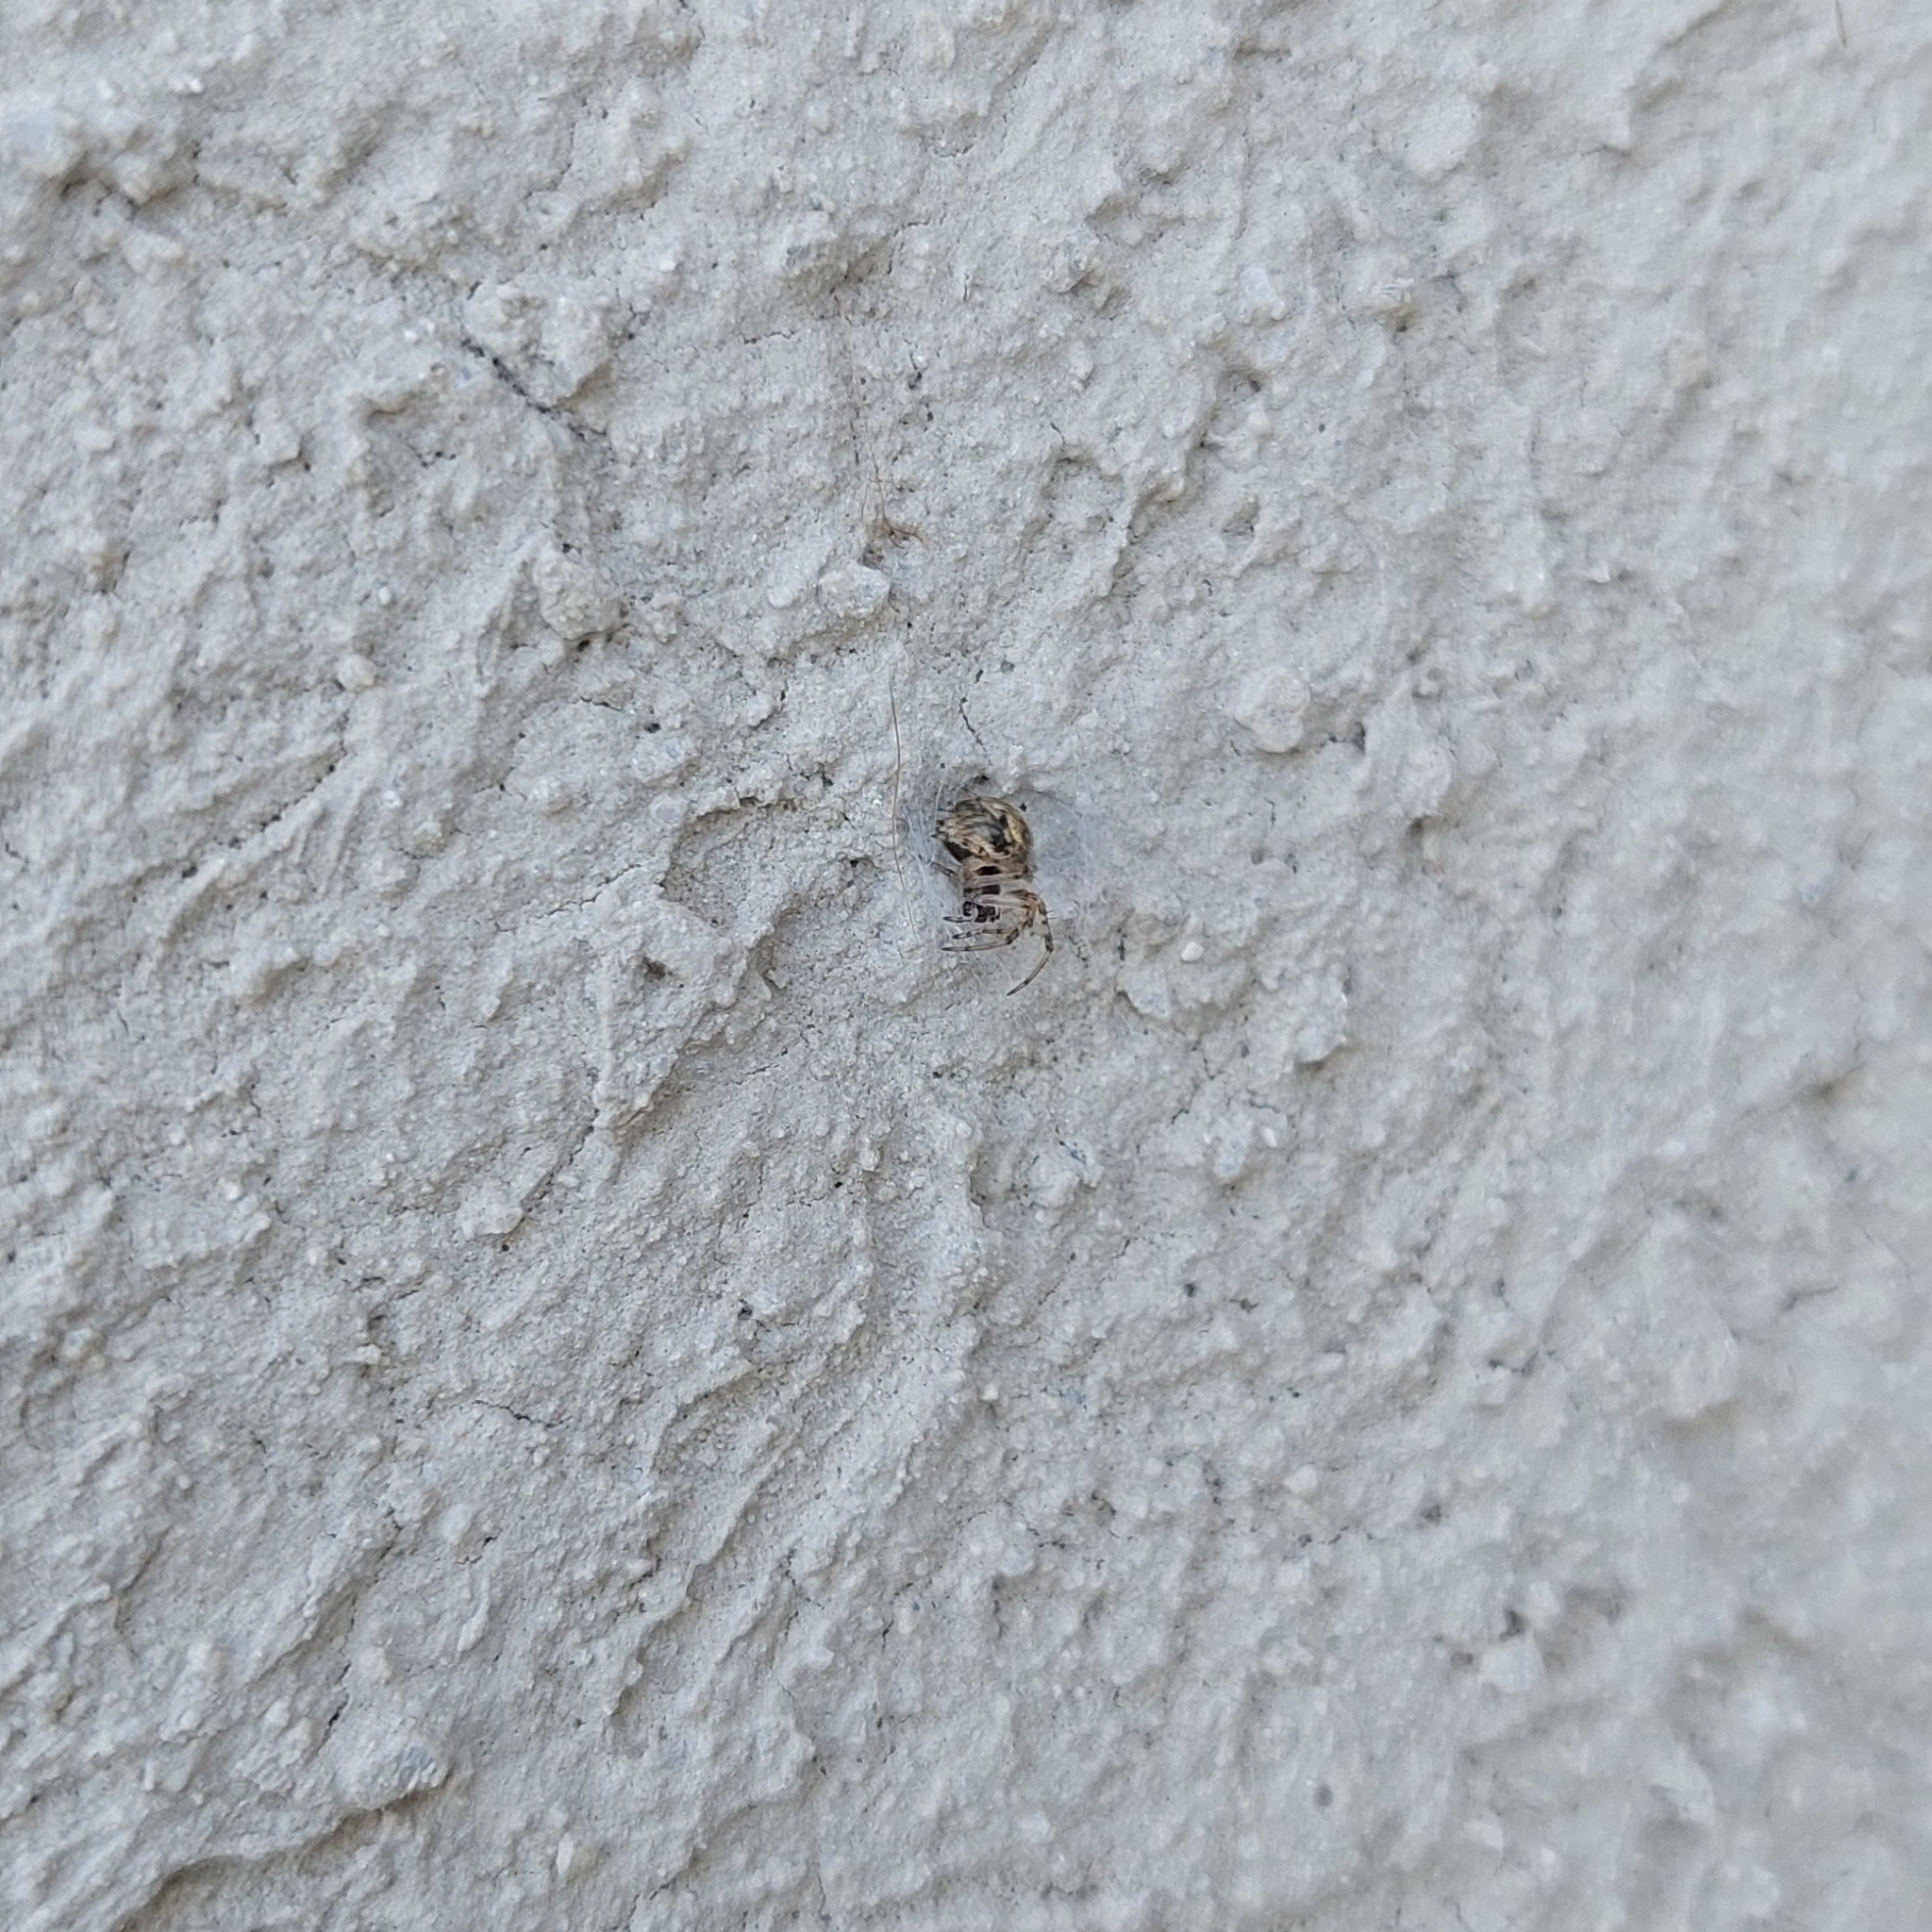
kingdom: Animalia
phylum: Arthropoda
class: Arachnida
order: Araneae
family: Araneidae
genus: Metepeira
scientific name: Metepeira
